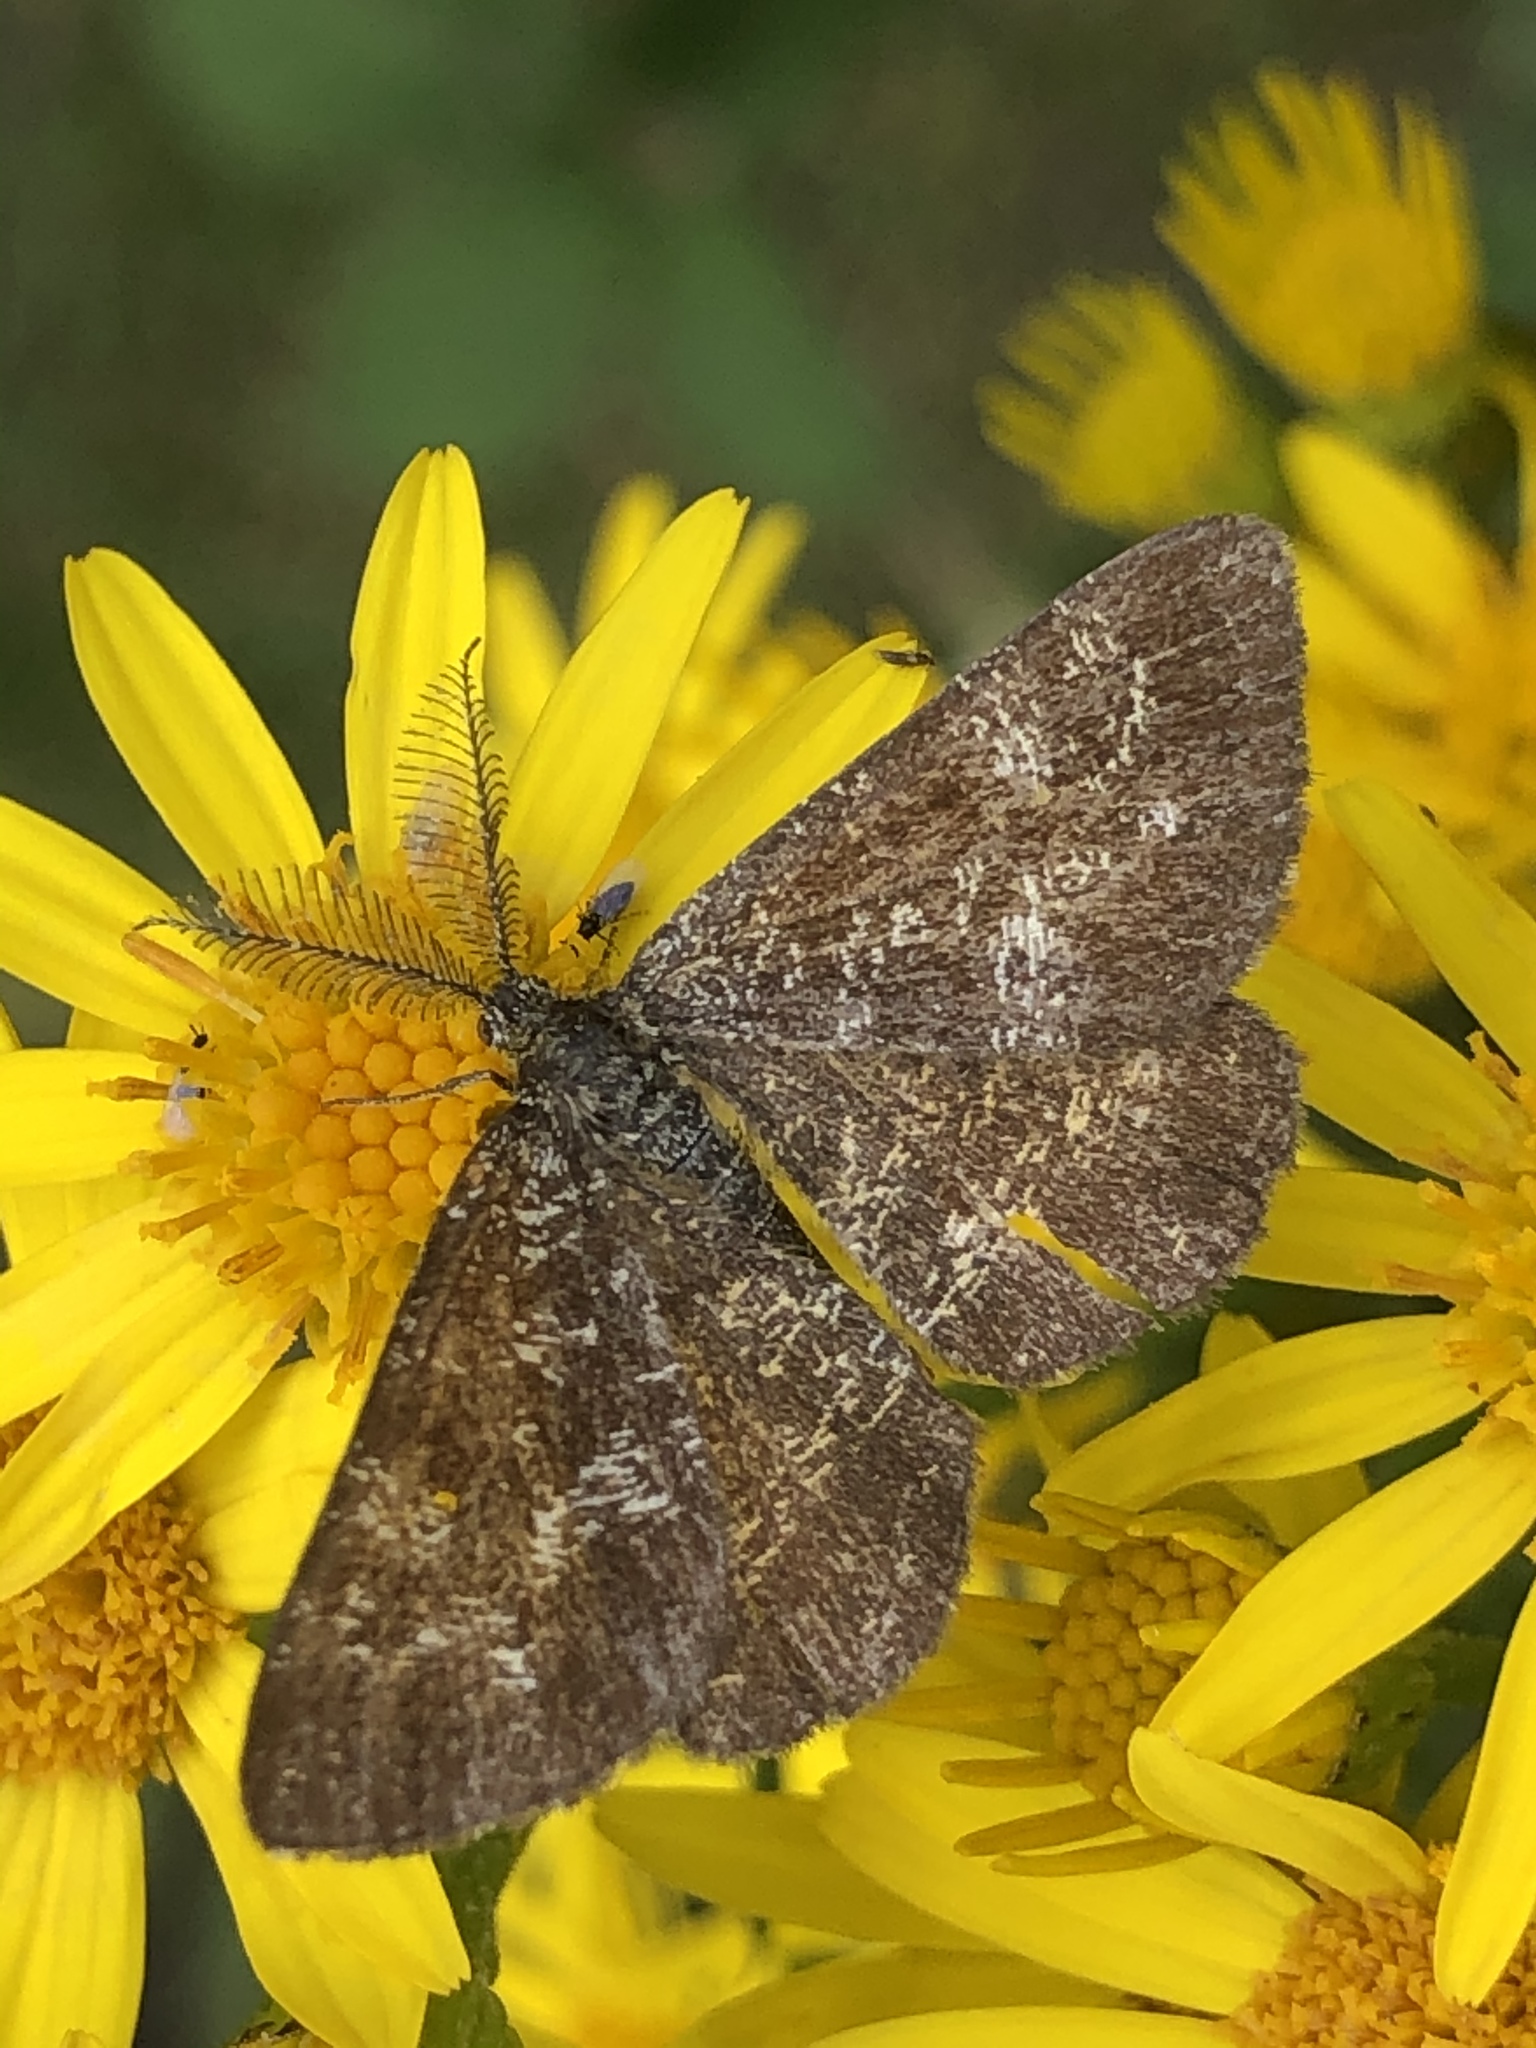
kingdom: Animalia
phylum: Arthropoda
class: Insecta
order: Lepidoptera
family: Geometridae
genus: Ematurga
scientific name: Ematurga atomaria
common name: Common heath
